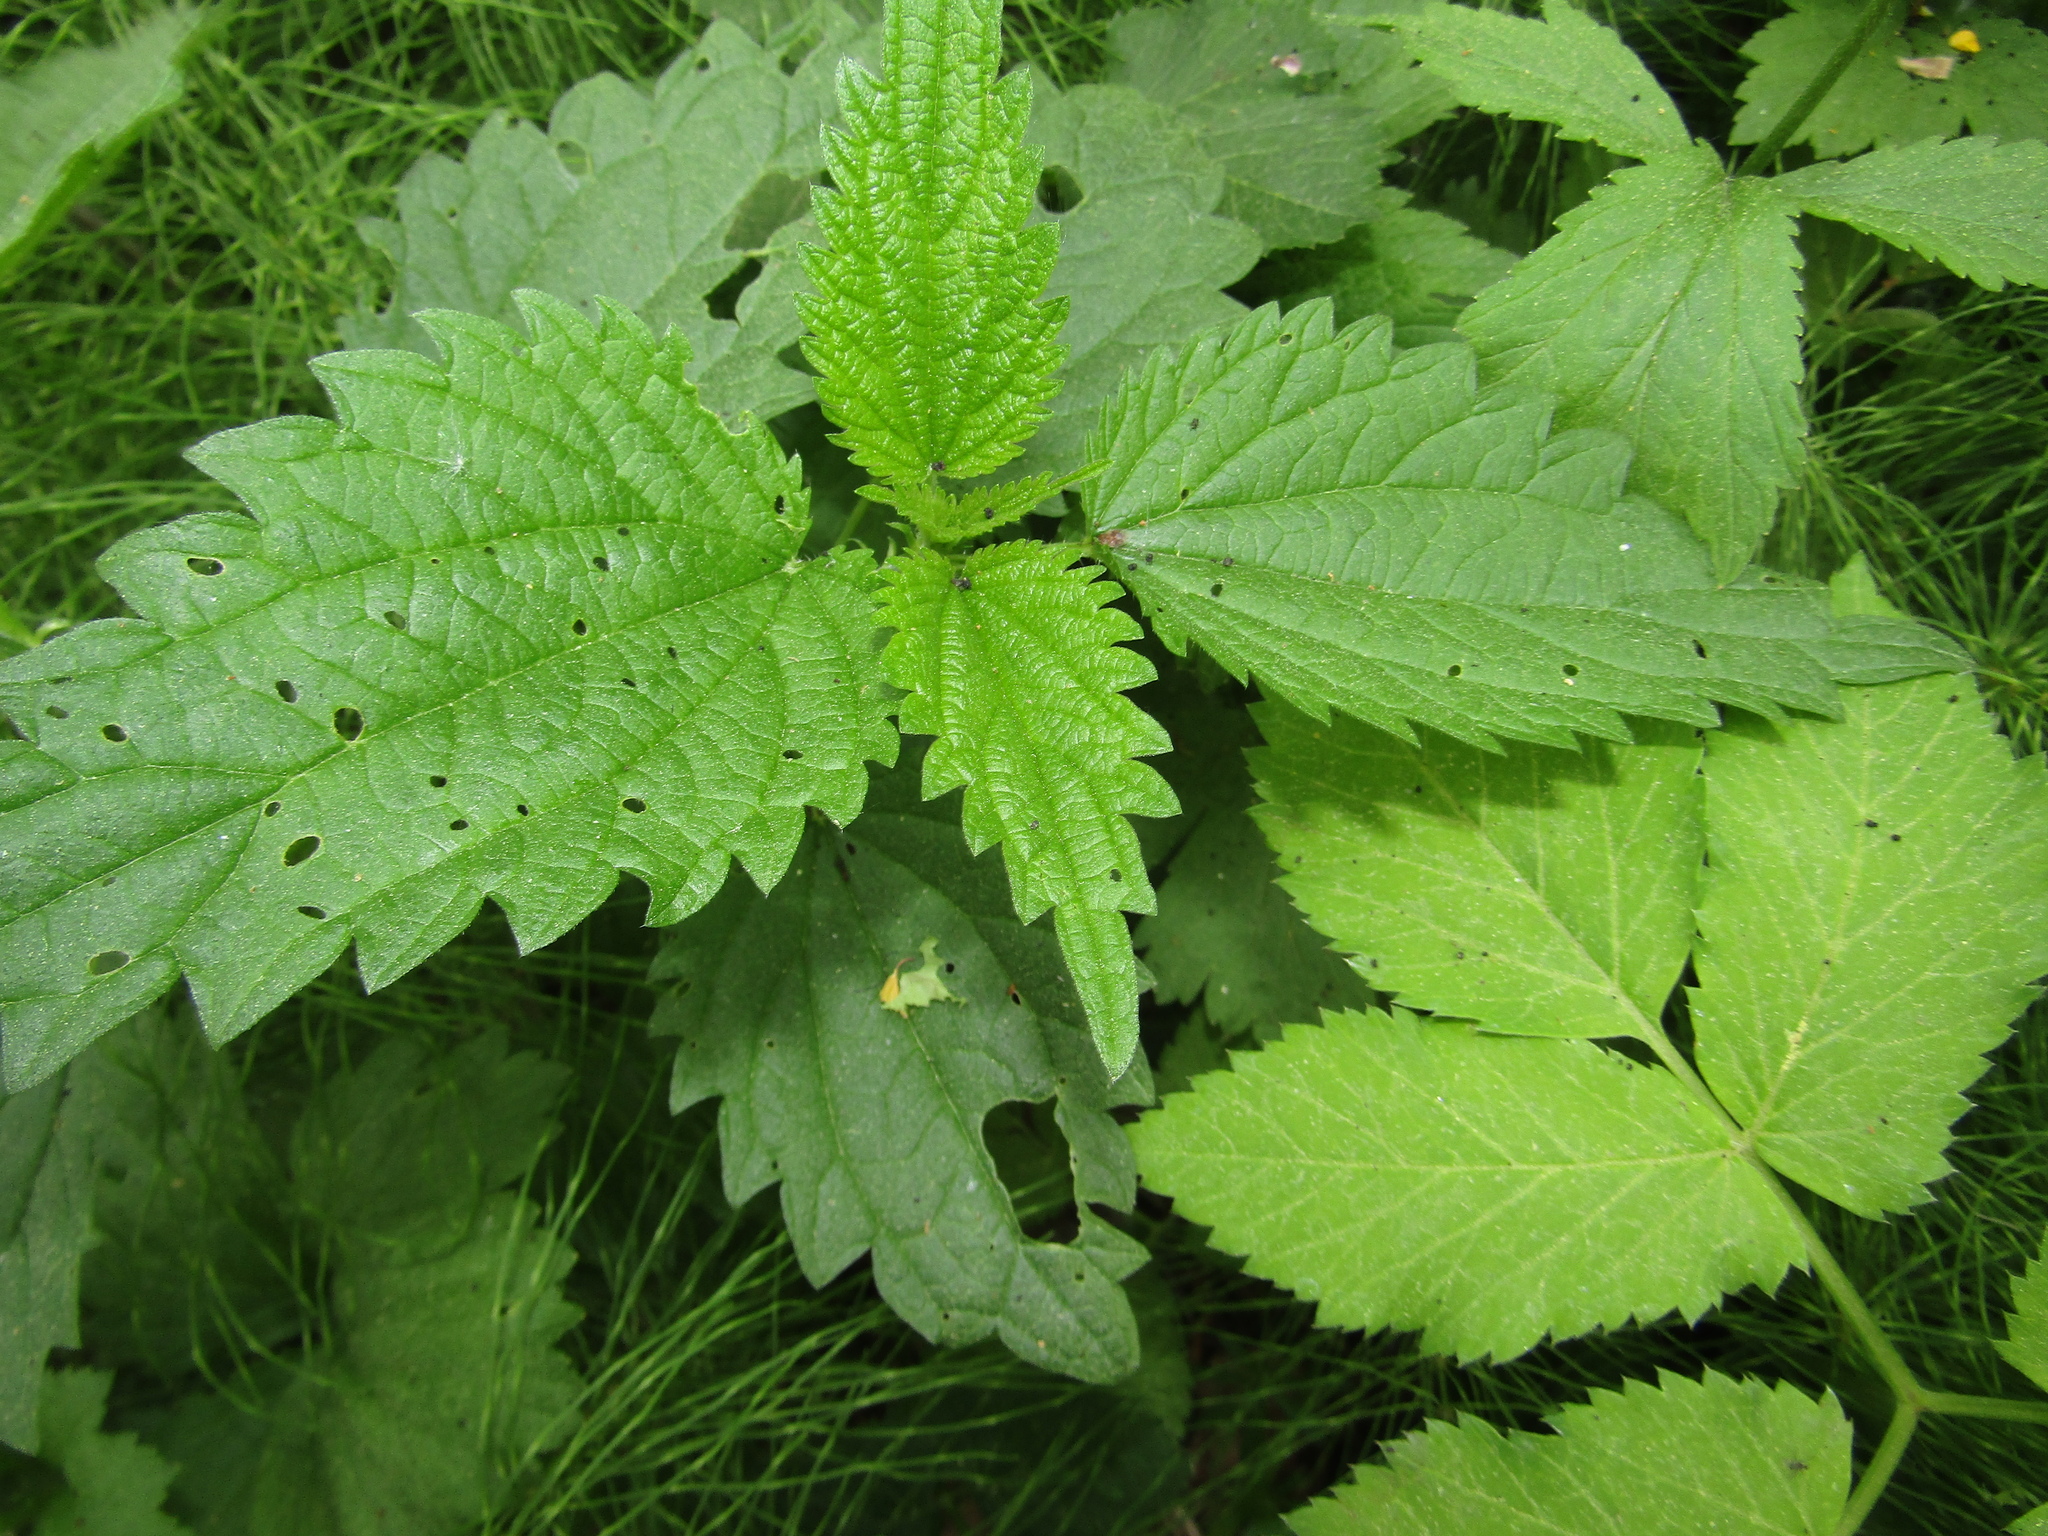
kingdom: Plantae
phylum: Tracheophyta
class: Magnoliopsida
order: Rosales
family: Urticaceae
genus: Urtica
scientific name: Urtica dioica
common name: Common nettle
